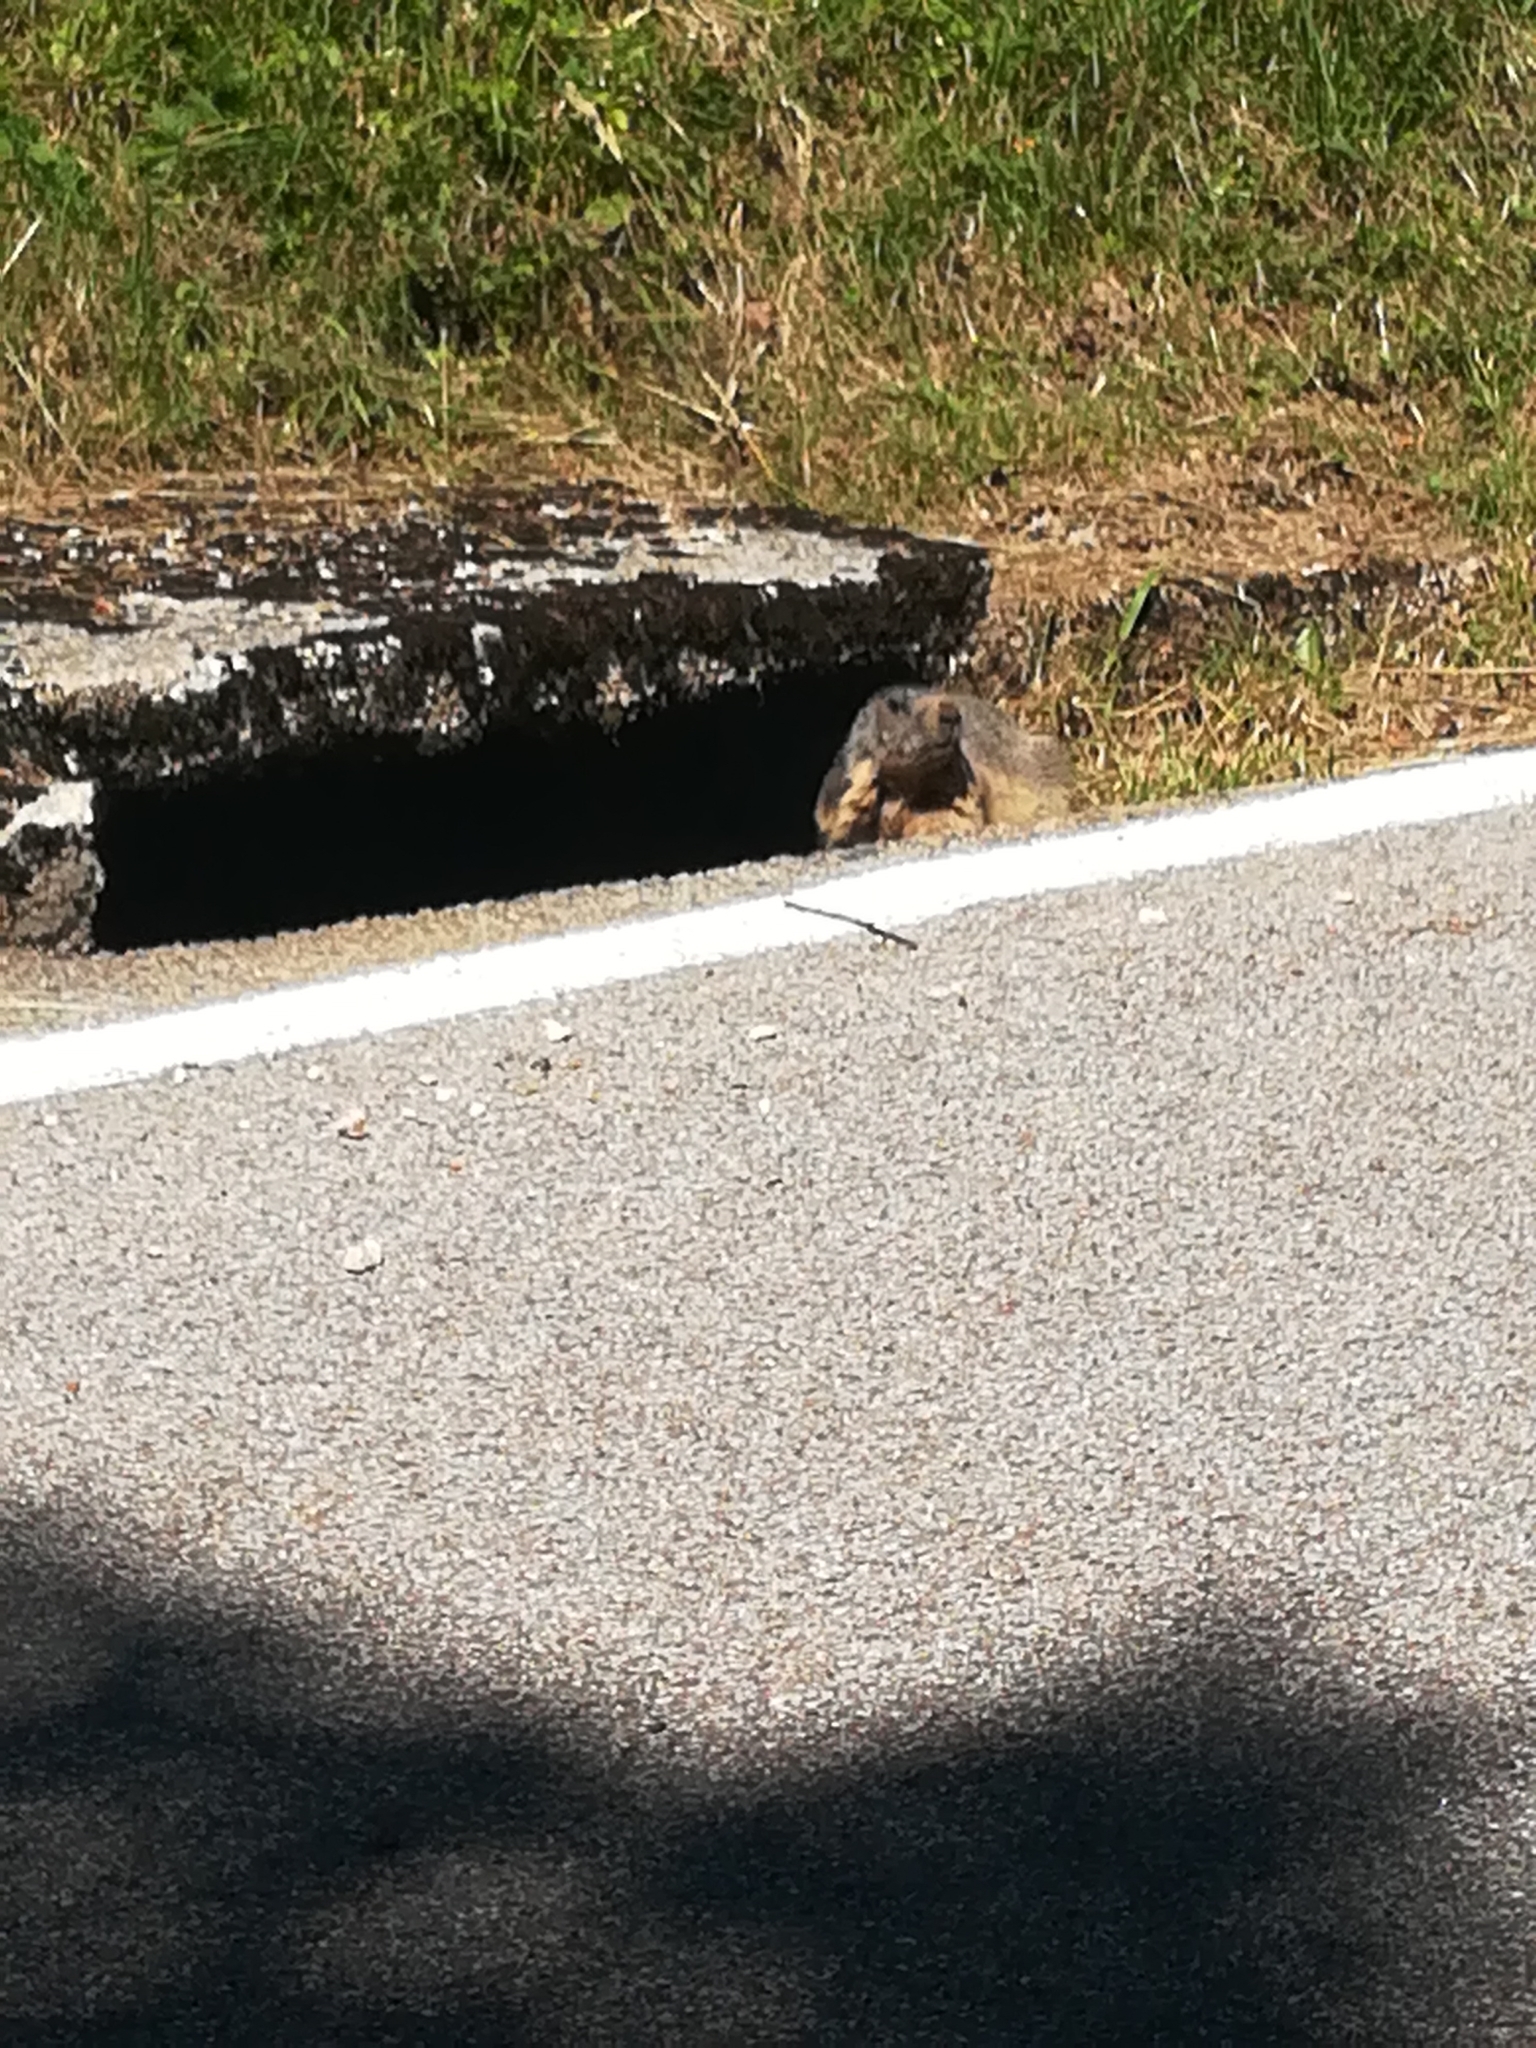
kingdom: Animalia
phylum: Chordata
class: Mammalia
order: Rodentia
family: Sciuridae
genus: Marmota
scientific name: Marmota marmota
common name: Alpine marmot
